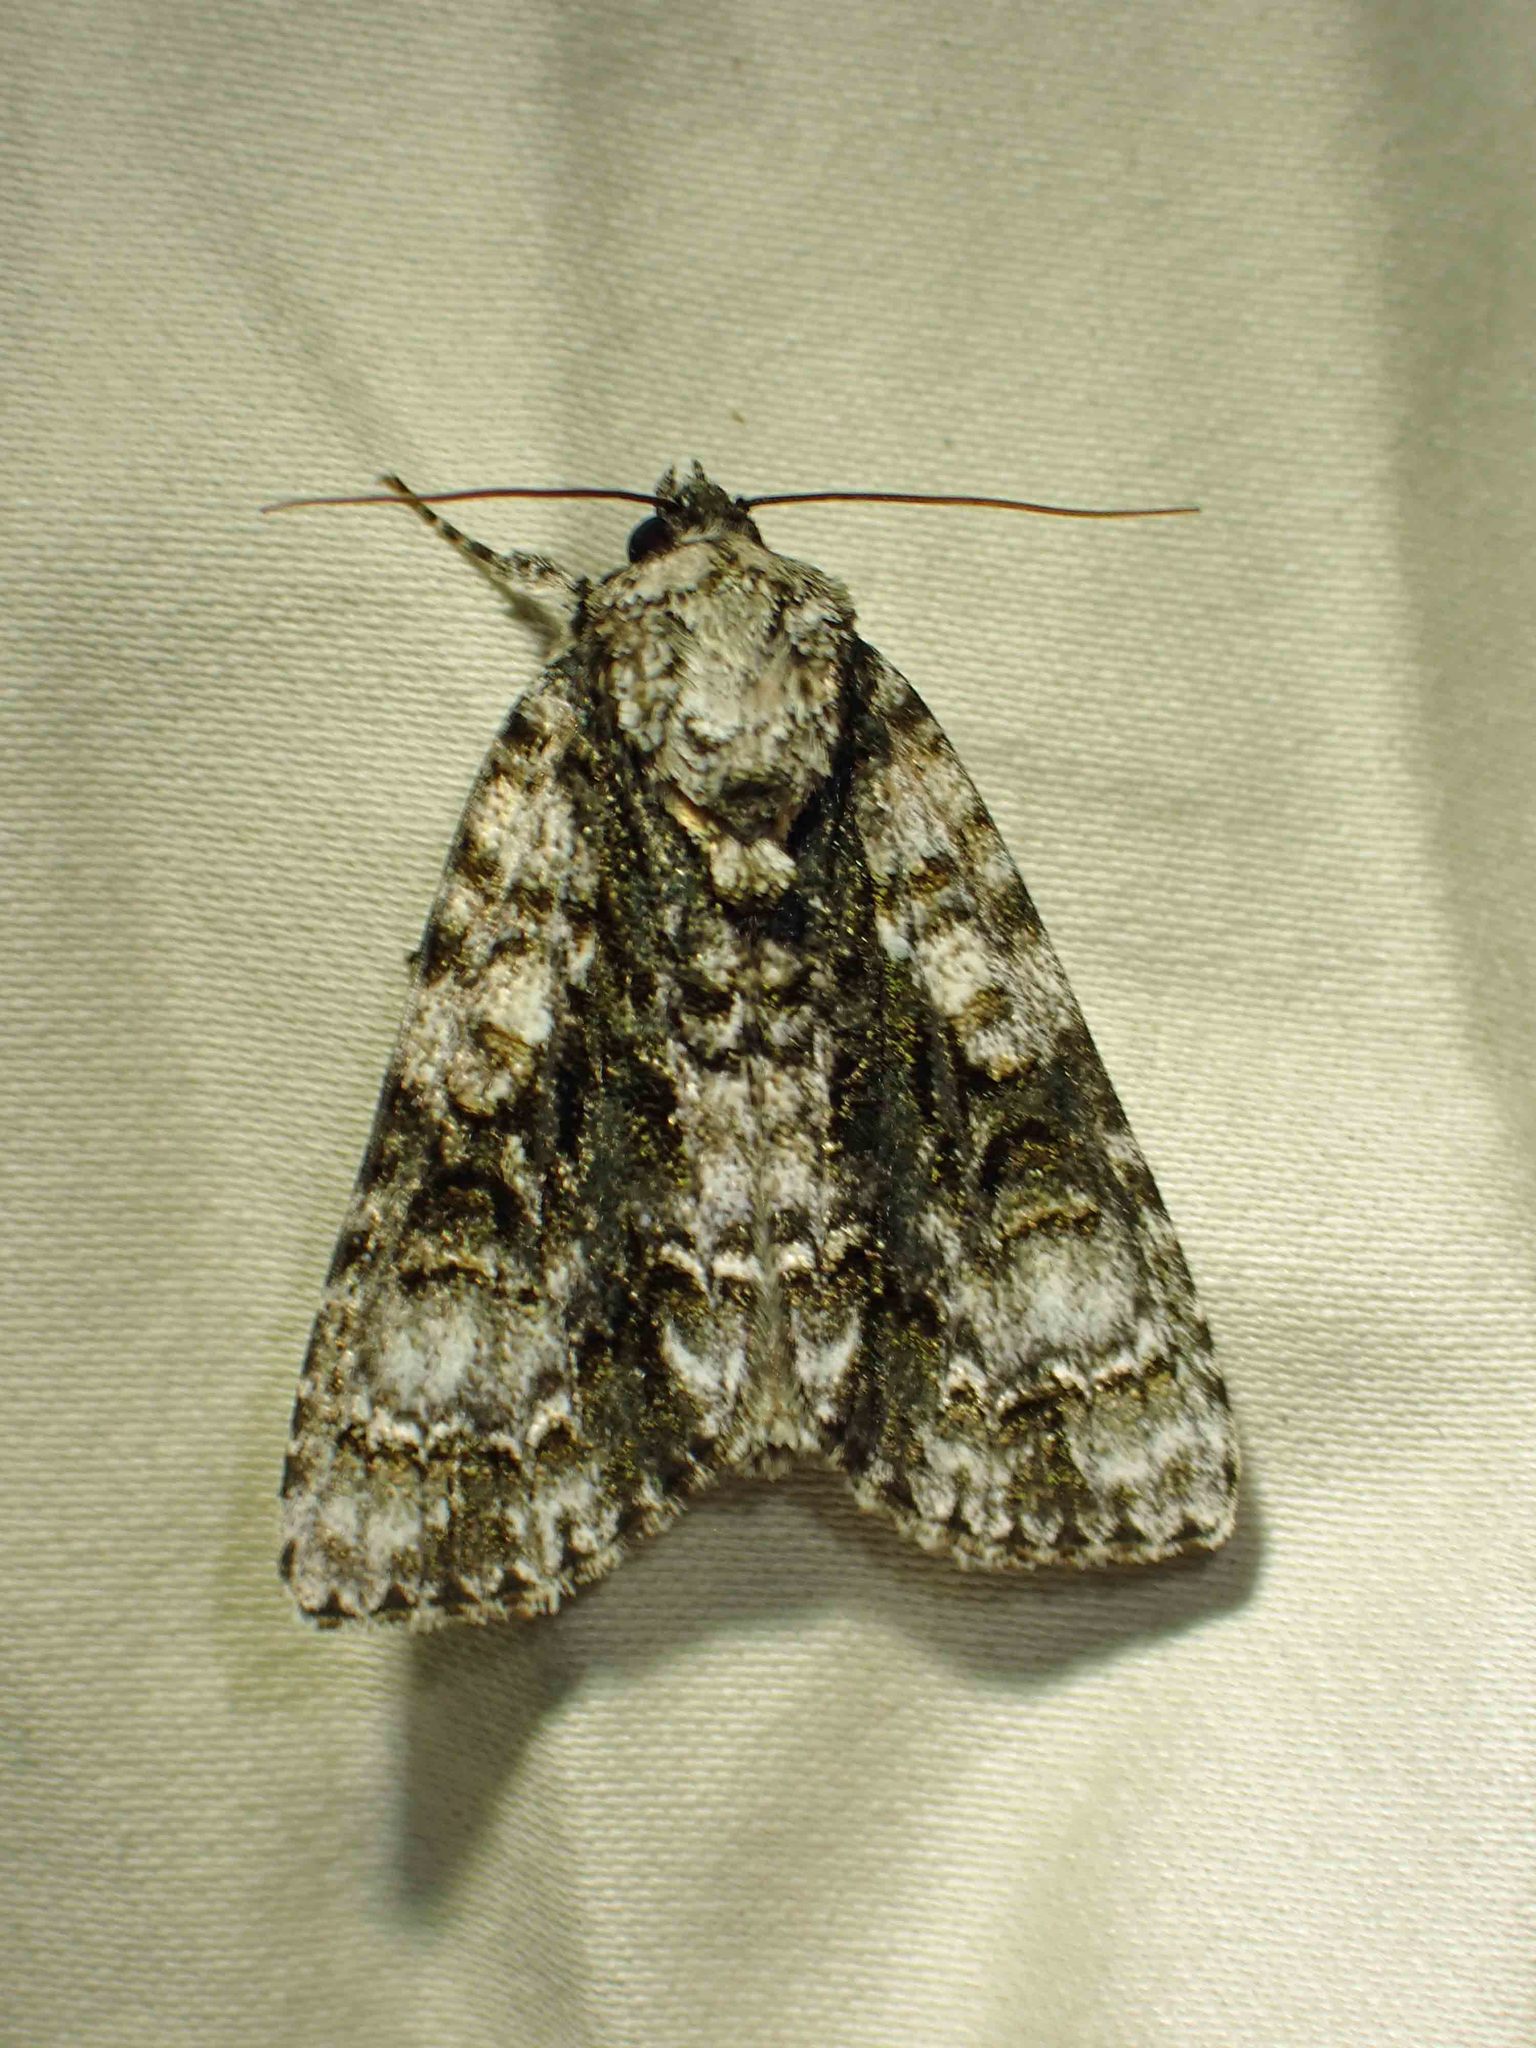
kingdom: Animalia
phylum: Arthropoda
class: Insecta
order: Lepidoptera
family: Noctuidae
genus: Acronicta
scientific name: Acronicta superans
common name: Splendid dagger
